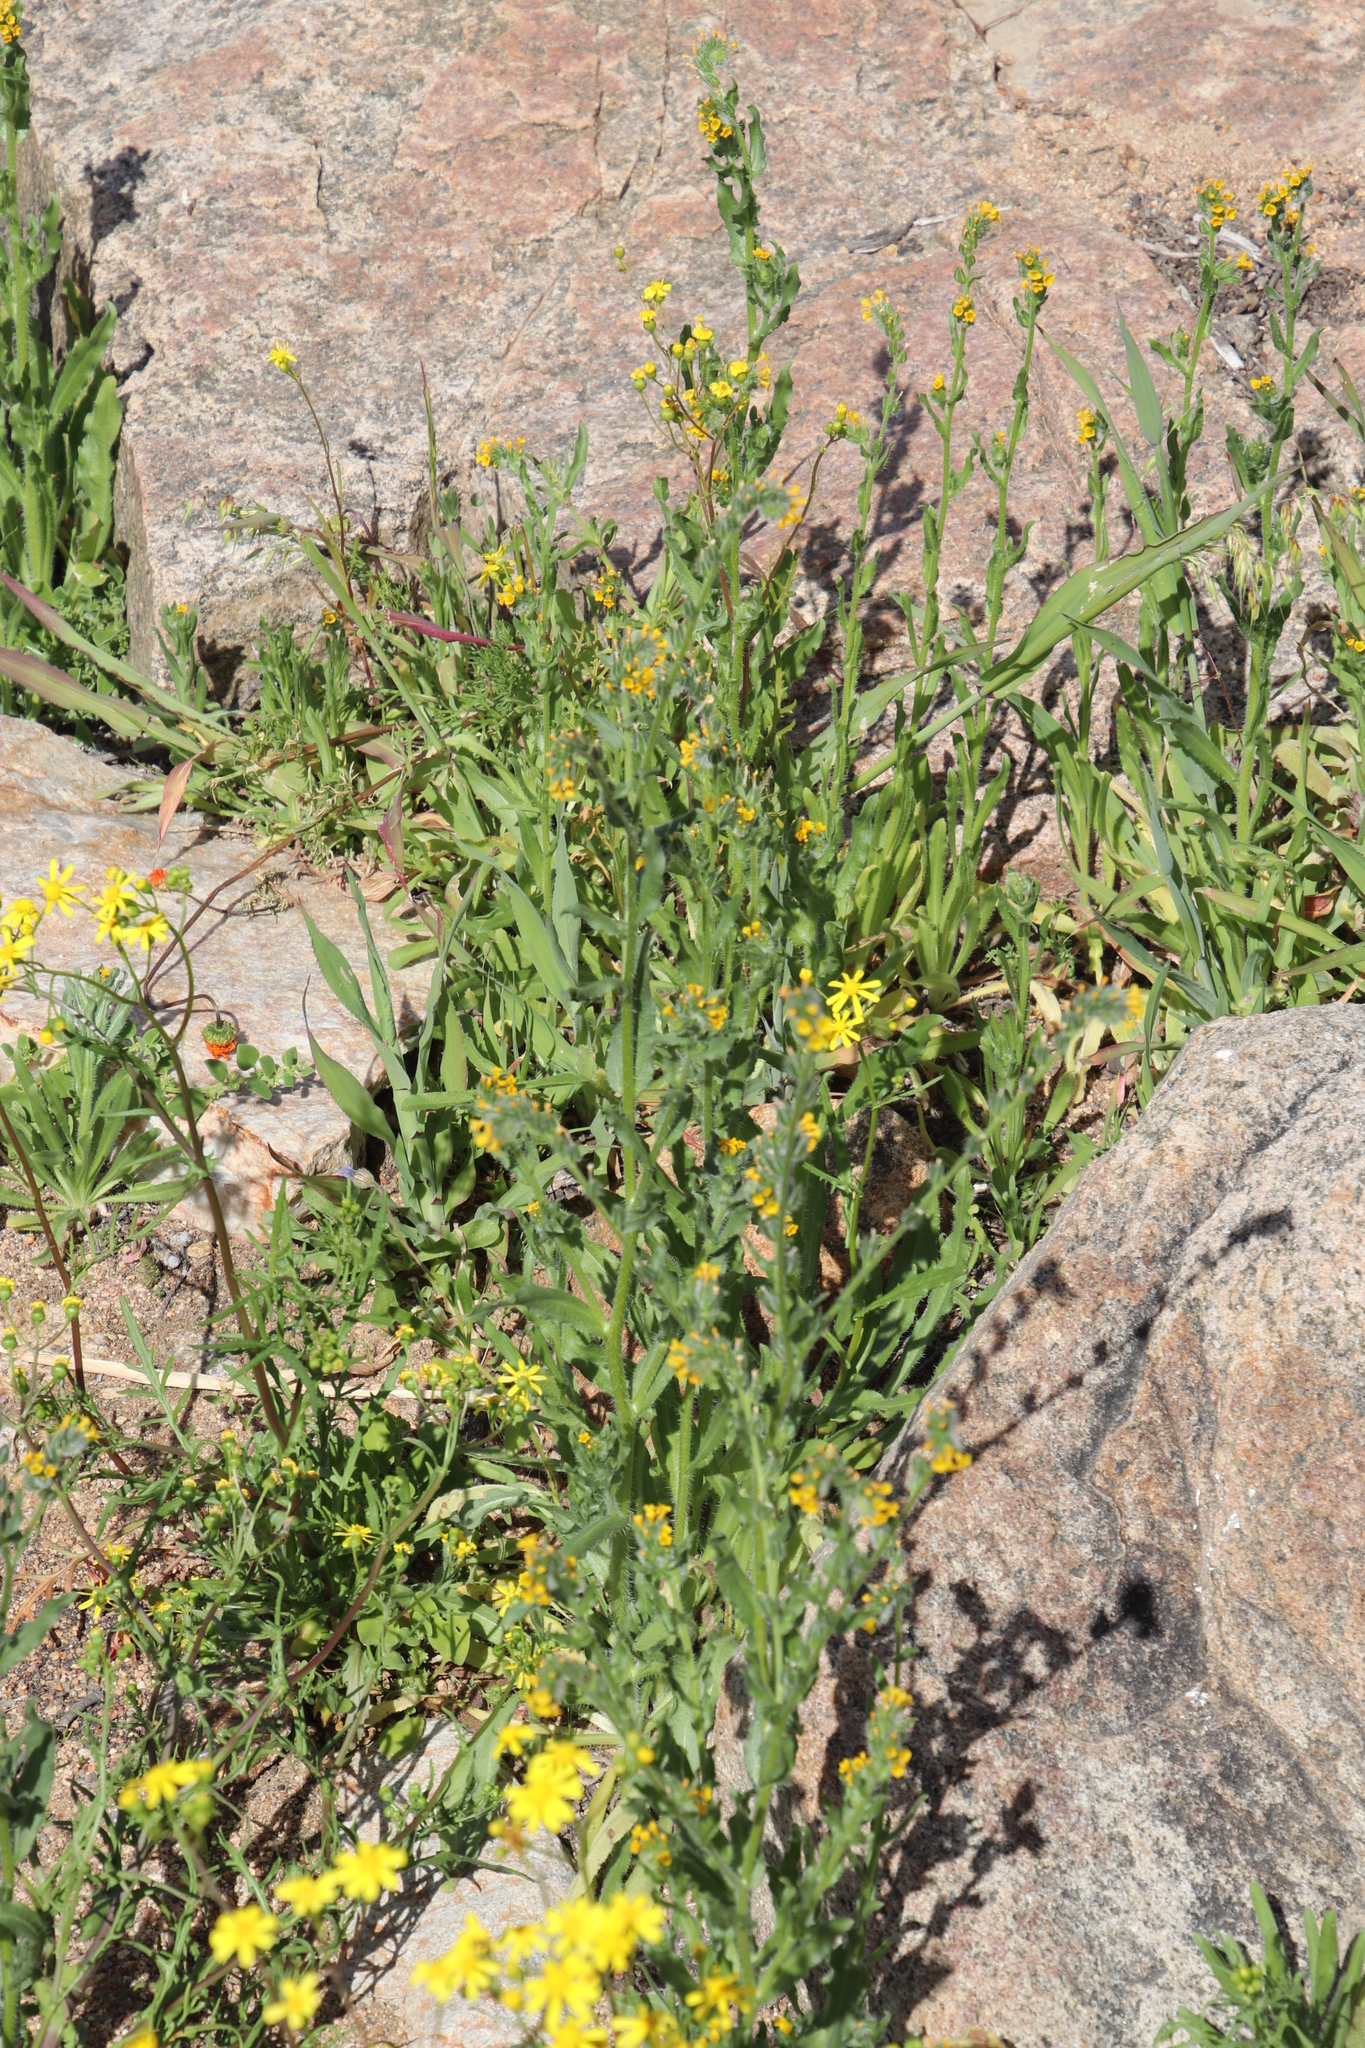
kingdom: Plantae
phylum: Tracheophyta
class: Magnoliopsida
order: Boraginales
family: Boraginaceae
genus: Amsinckia
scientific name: Amsinckia menziesii
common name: Menzies' fiddleneck
